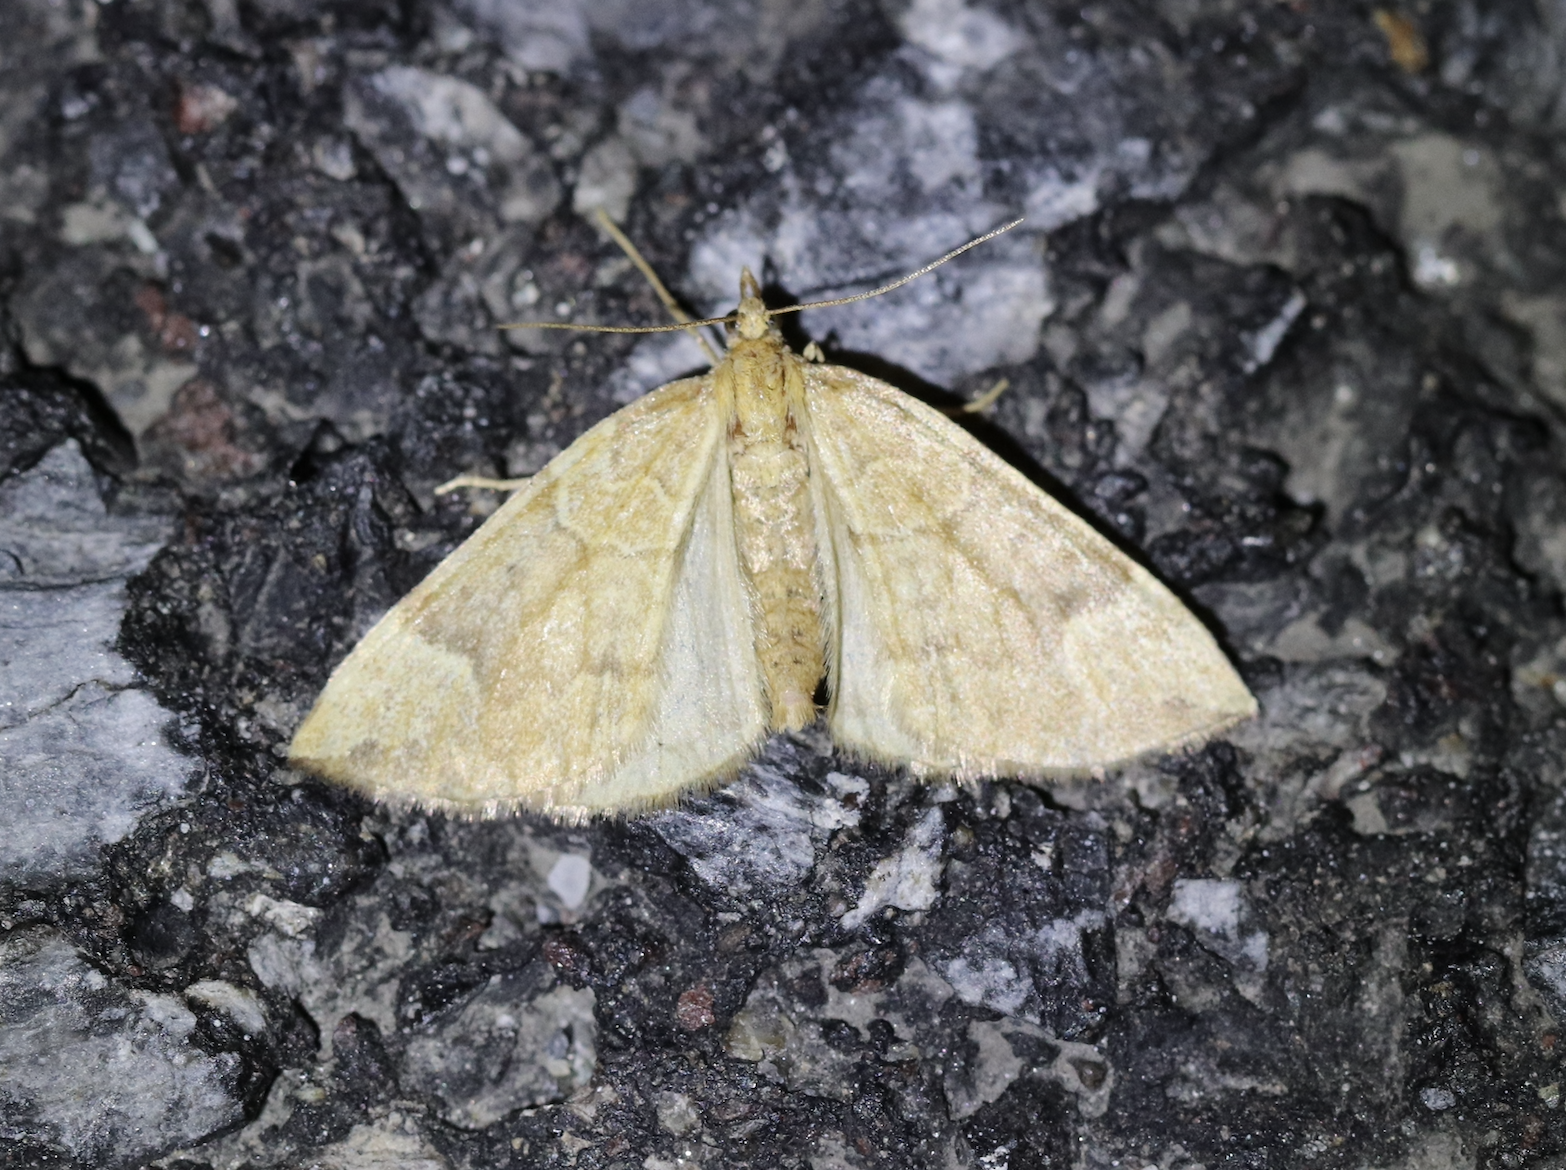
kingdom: Animalia
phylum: Arthropoda
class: Insecta
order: Lepidoptera
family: Geometridae
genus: Eulithis
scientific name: Eulithis populata
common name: Northern spinach
